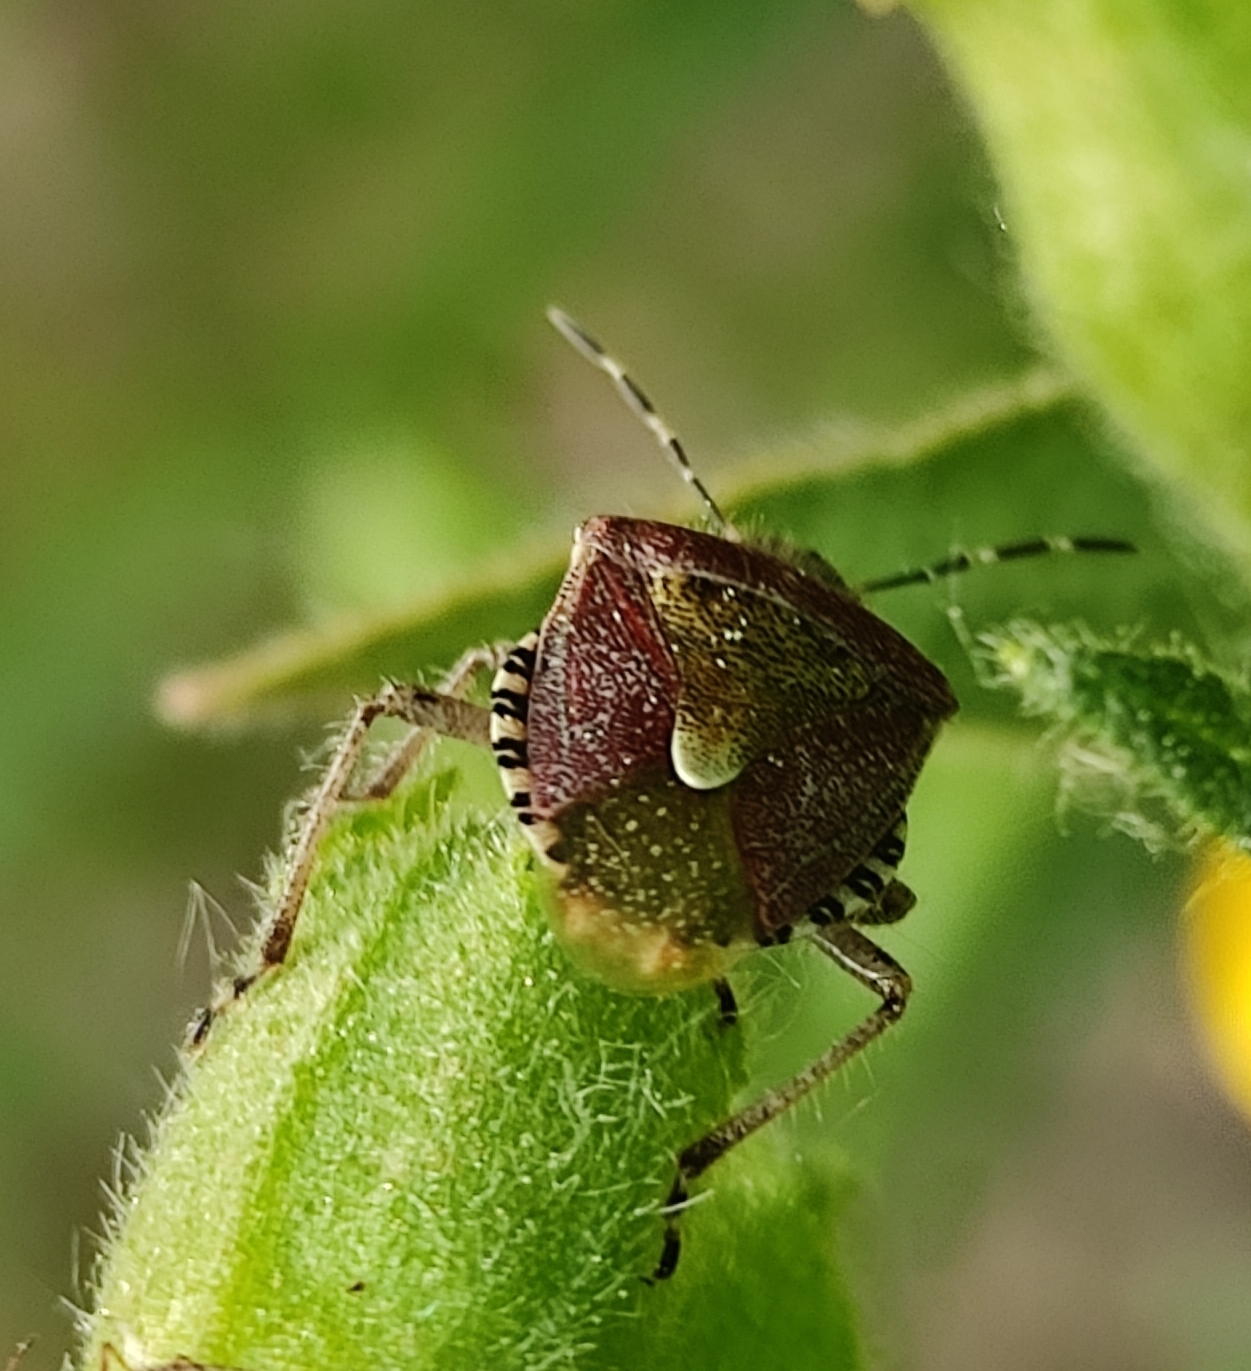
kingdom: Animalia
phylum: Arthropoda
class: Insecta
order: Hemiptera
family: Pentatomidae
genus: Dolycoris
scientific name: Dolycoris baccarum
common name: Sloe bug
